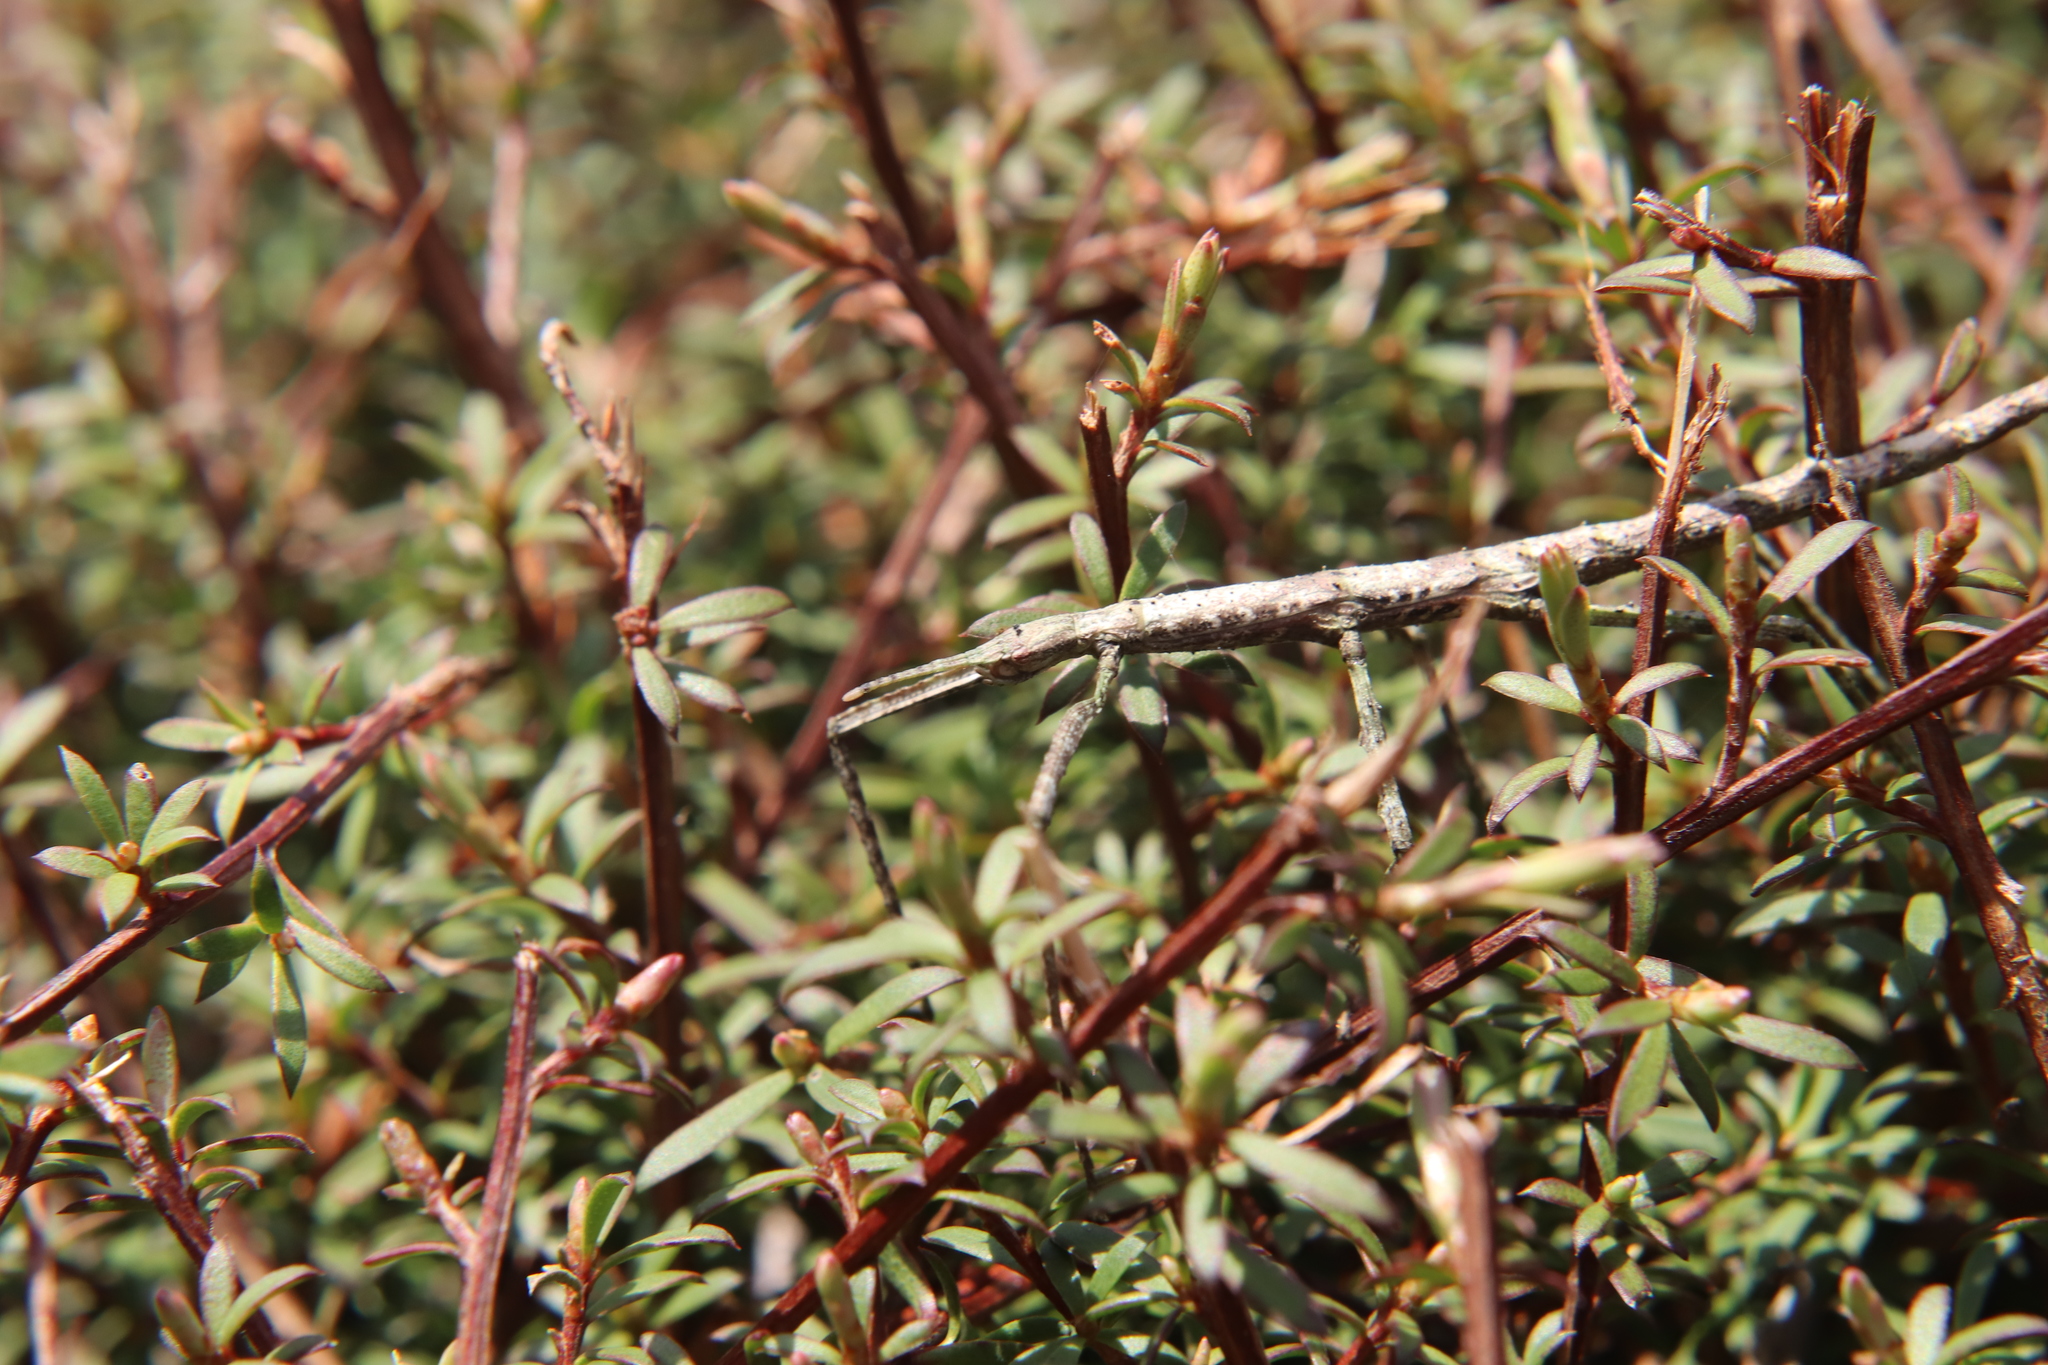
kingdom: Animalia
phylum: Arthropoda
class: Insecta
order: Phasmida
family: Phasmatidae
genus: Niveaphasma
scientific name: Niveaphasma annulatum
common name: Hutton's stick insect
